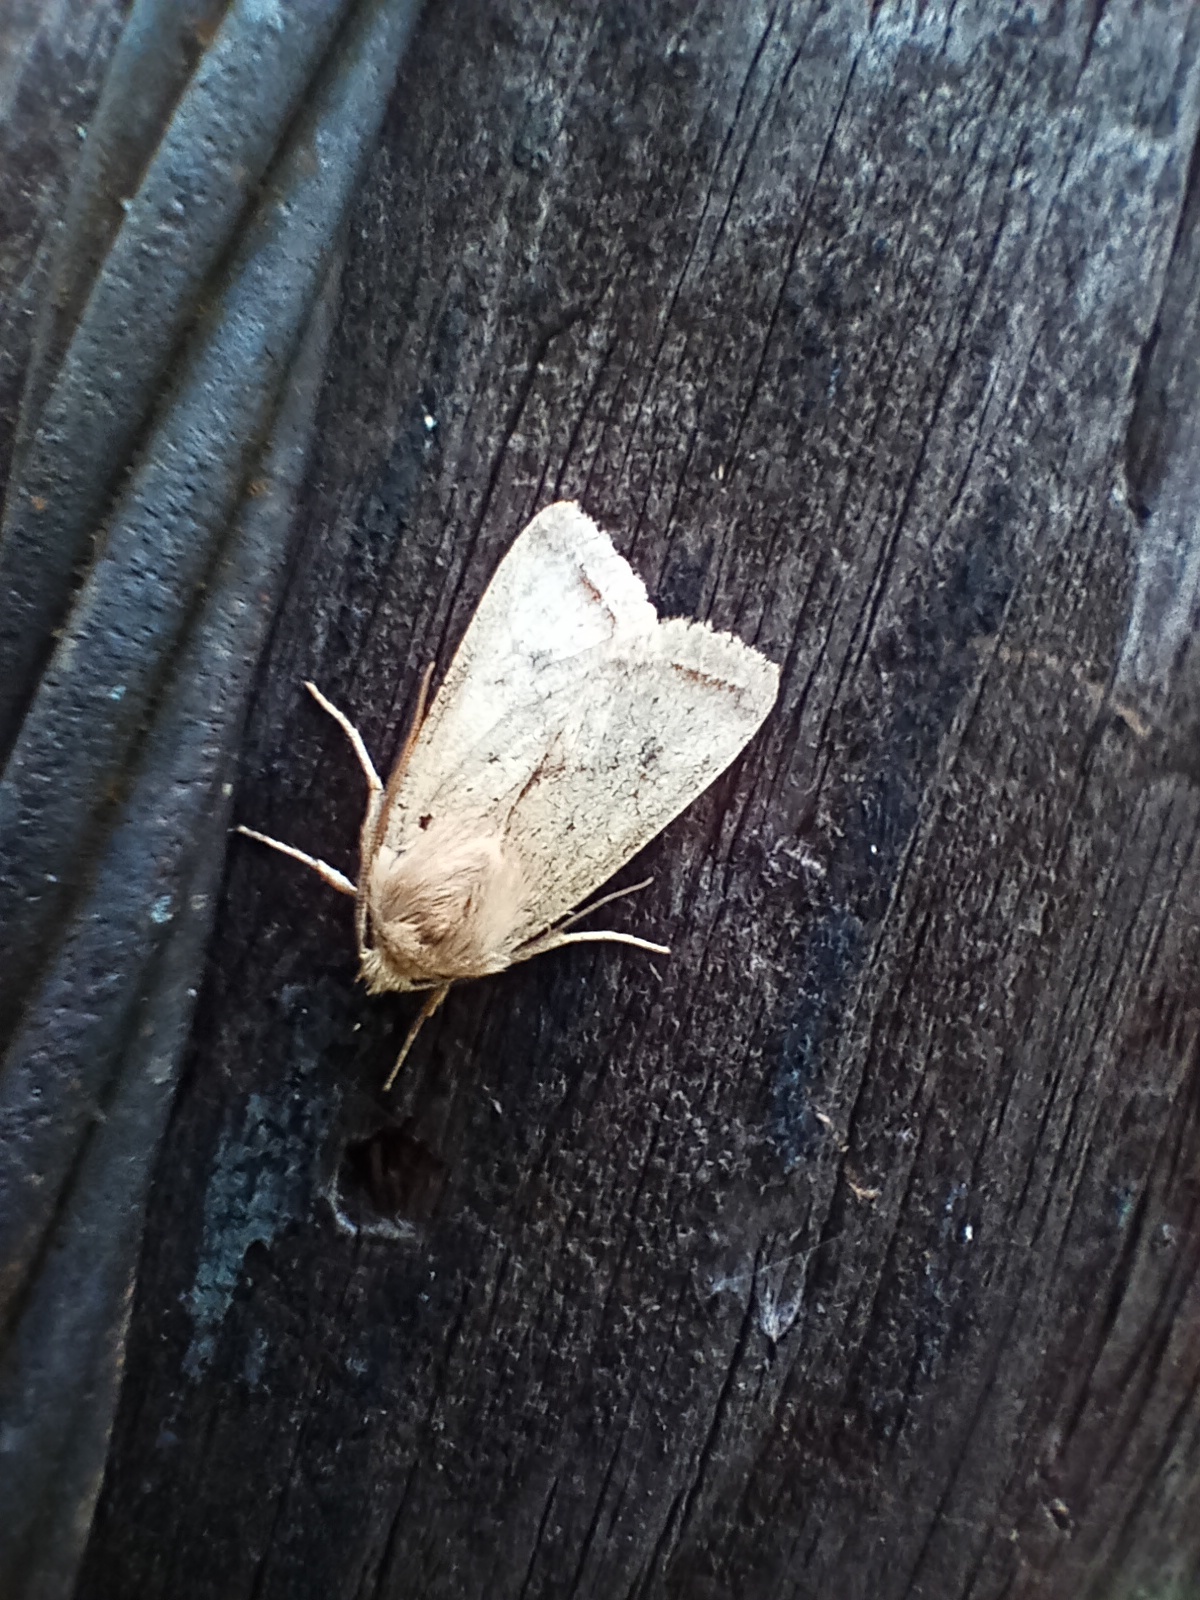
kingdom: Animalia
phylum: Arthropoda
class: Insecta
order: Lepidoptera
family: Noctuidae
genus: Agrochola
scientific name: Agrochola macilenta
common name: Yellow-line quaker
